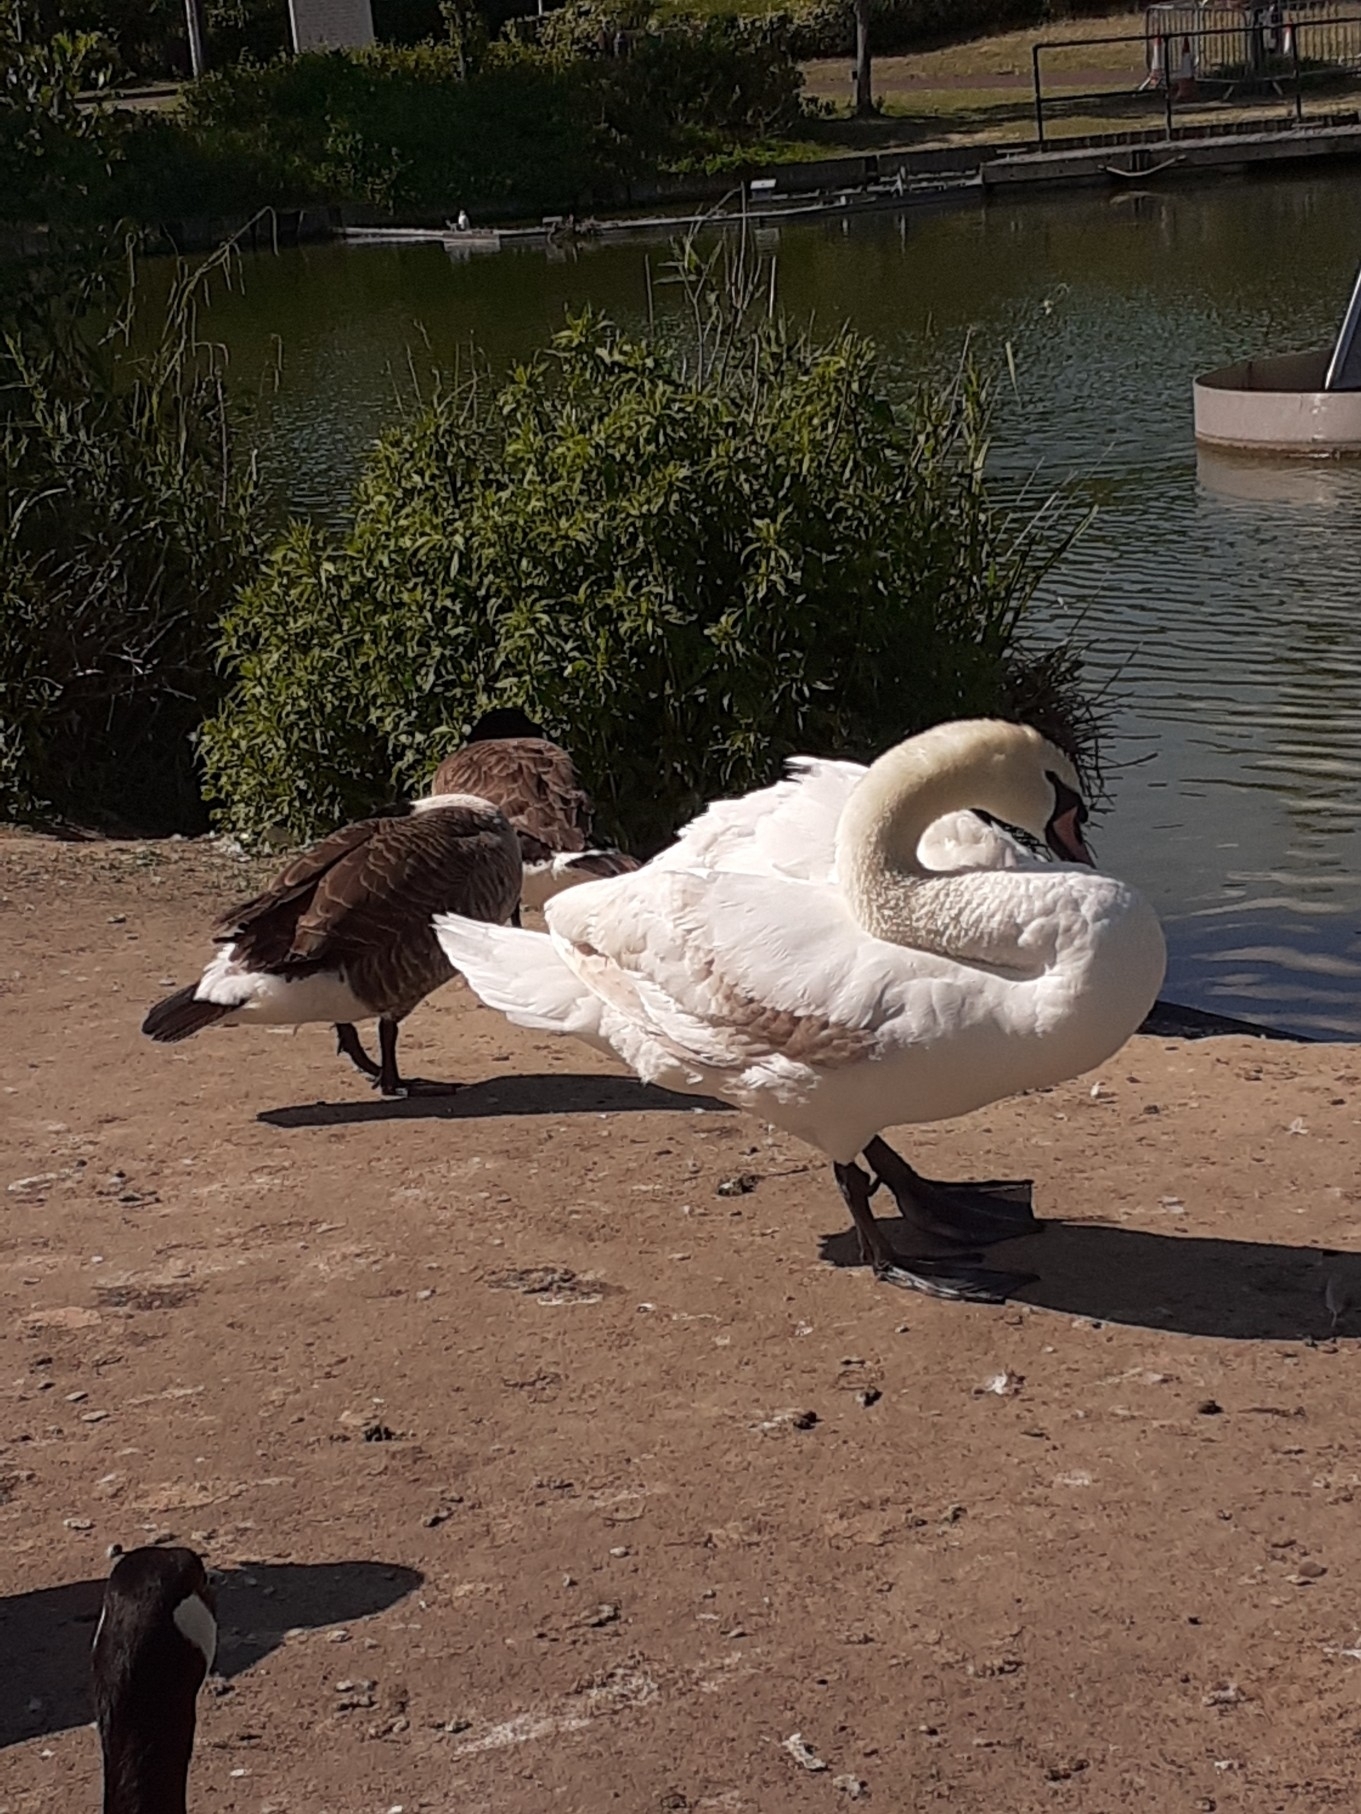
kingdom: Animalia
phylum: Chordata
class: Aves
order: Anseriformes
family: Anatidae
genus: Cygnus
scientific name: Cygnus olor
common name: Mute swan
